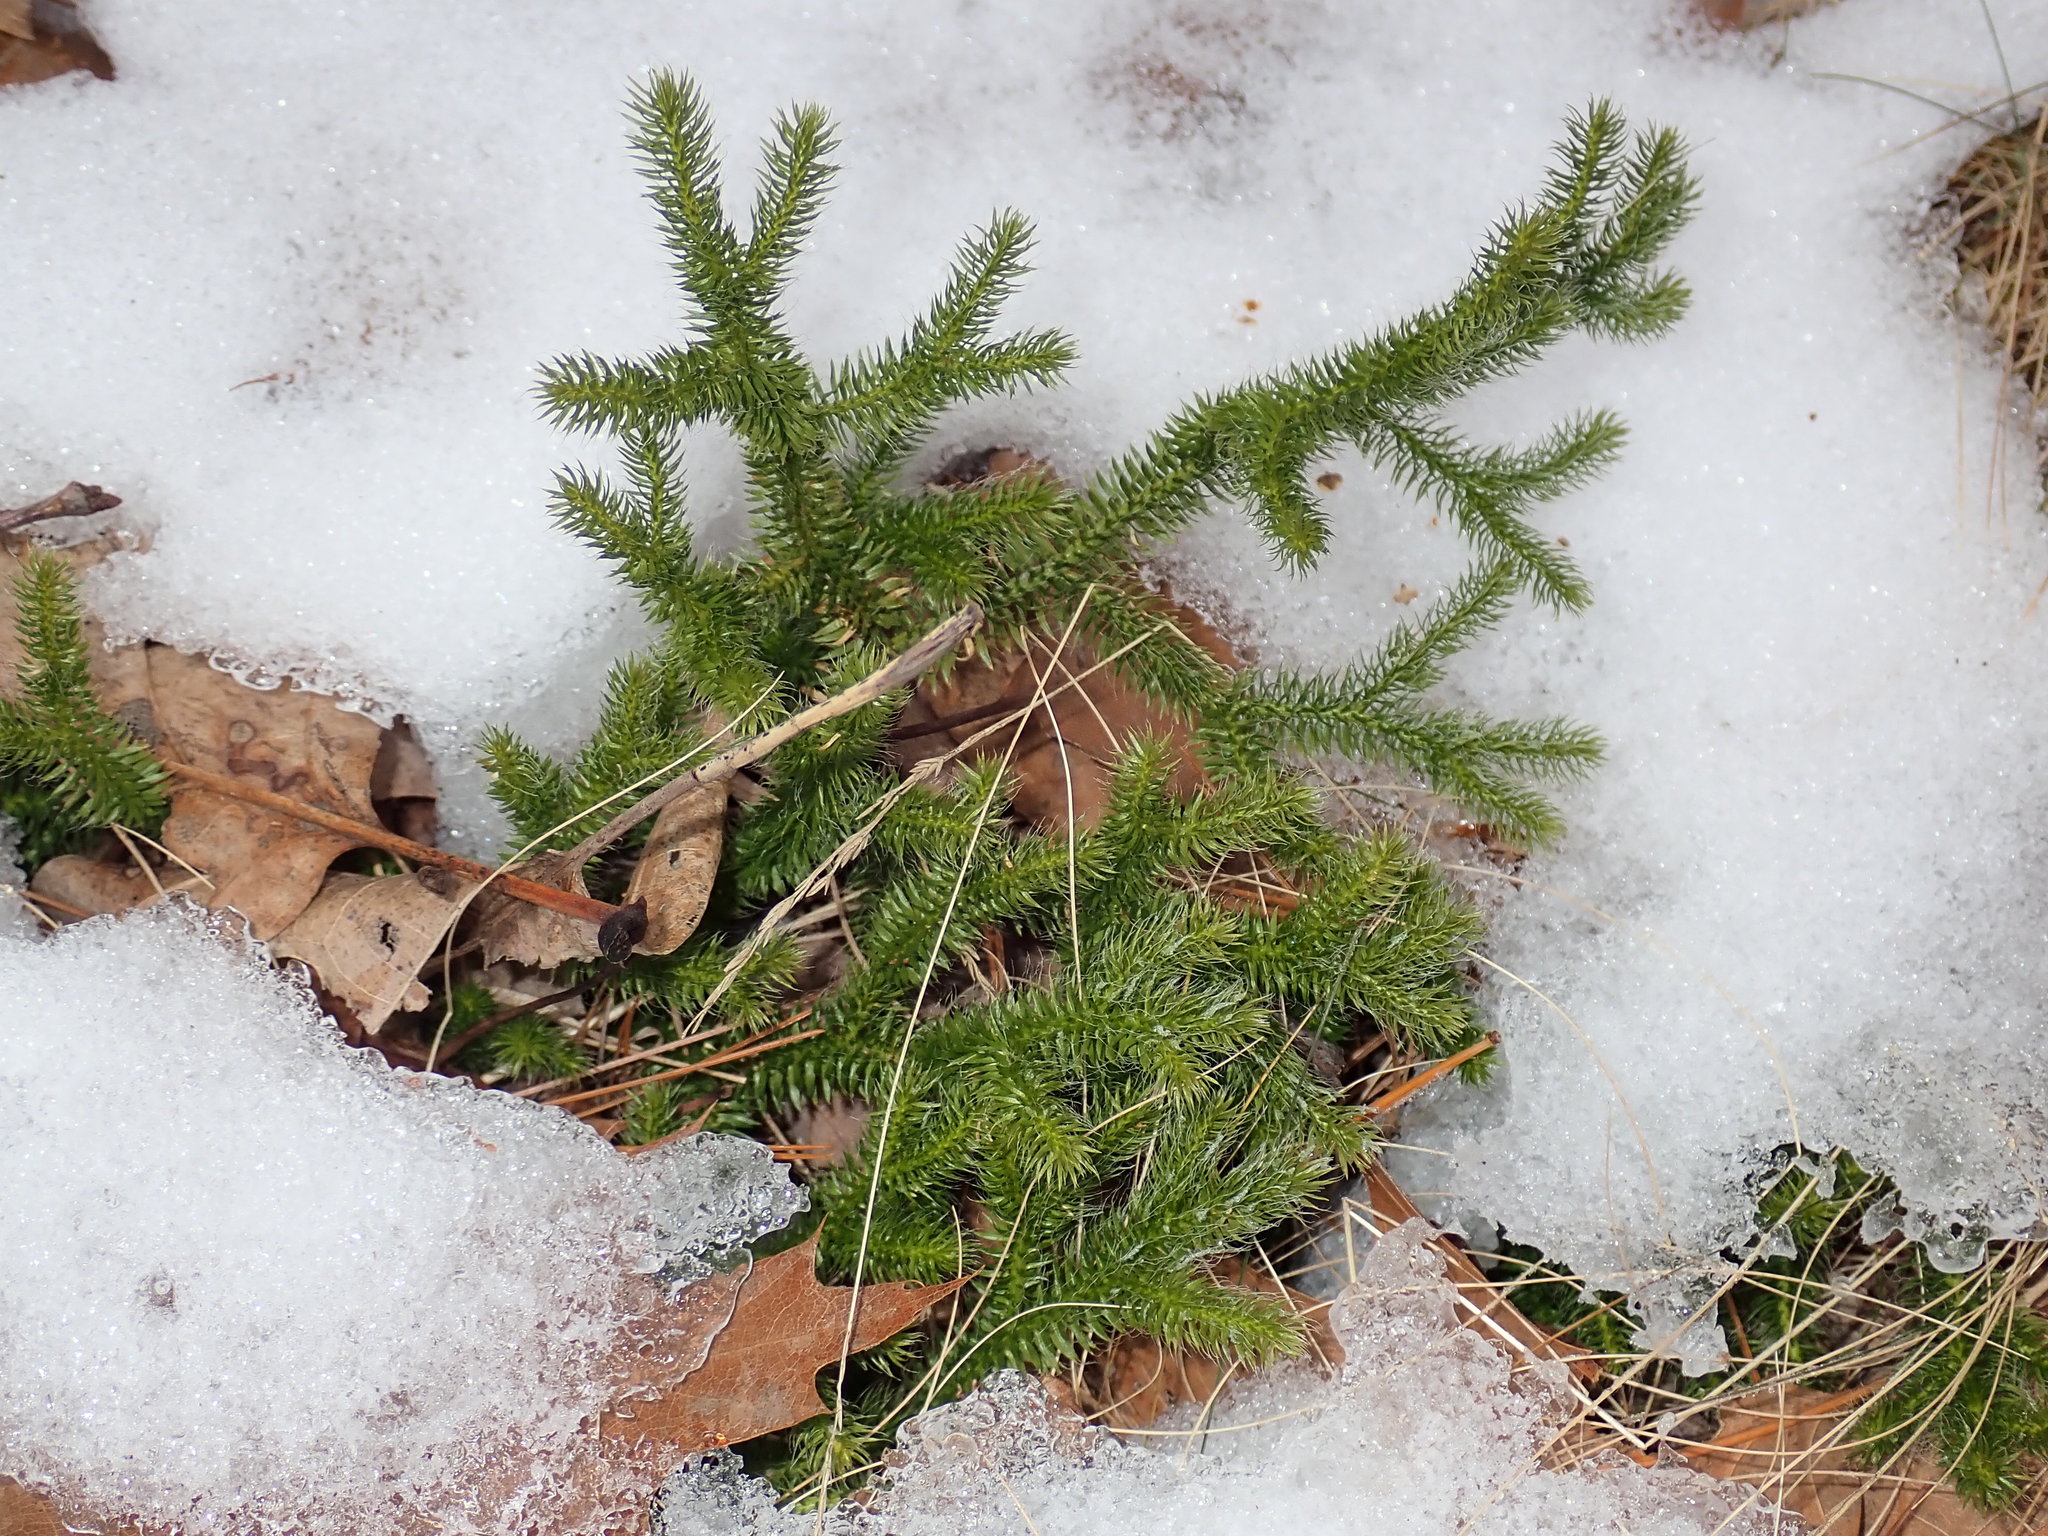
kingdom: Plantae
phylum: Tracheophyta
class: Lycopodiopsida
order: Lycopodiales
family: Lycopodiaceae
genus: Lycopodium
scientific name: Lycopodium clavatum
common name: Stag's-horn clubmoss
